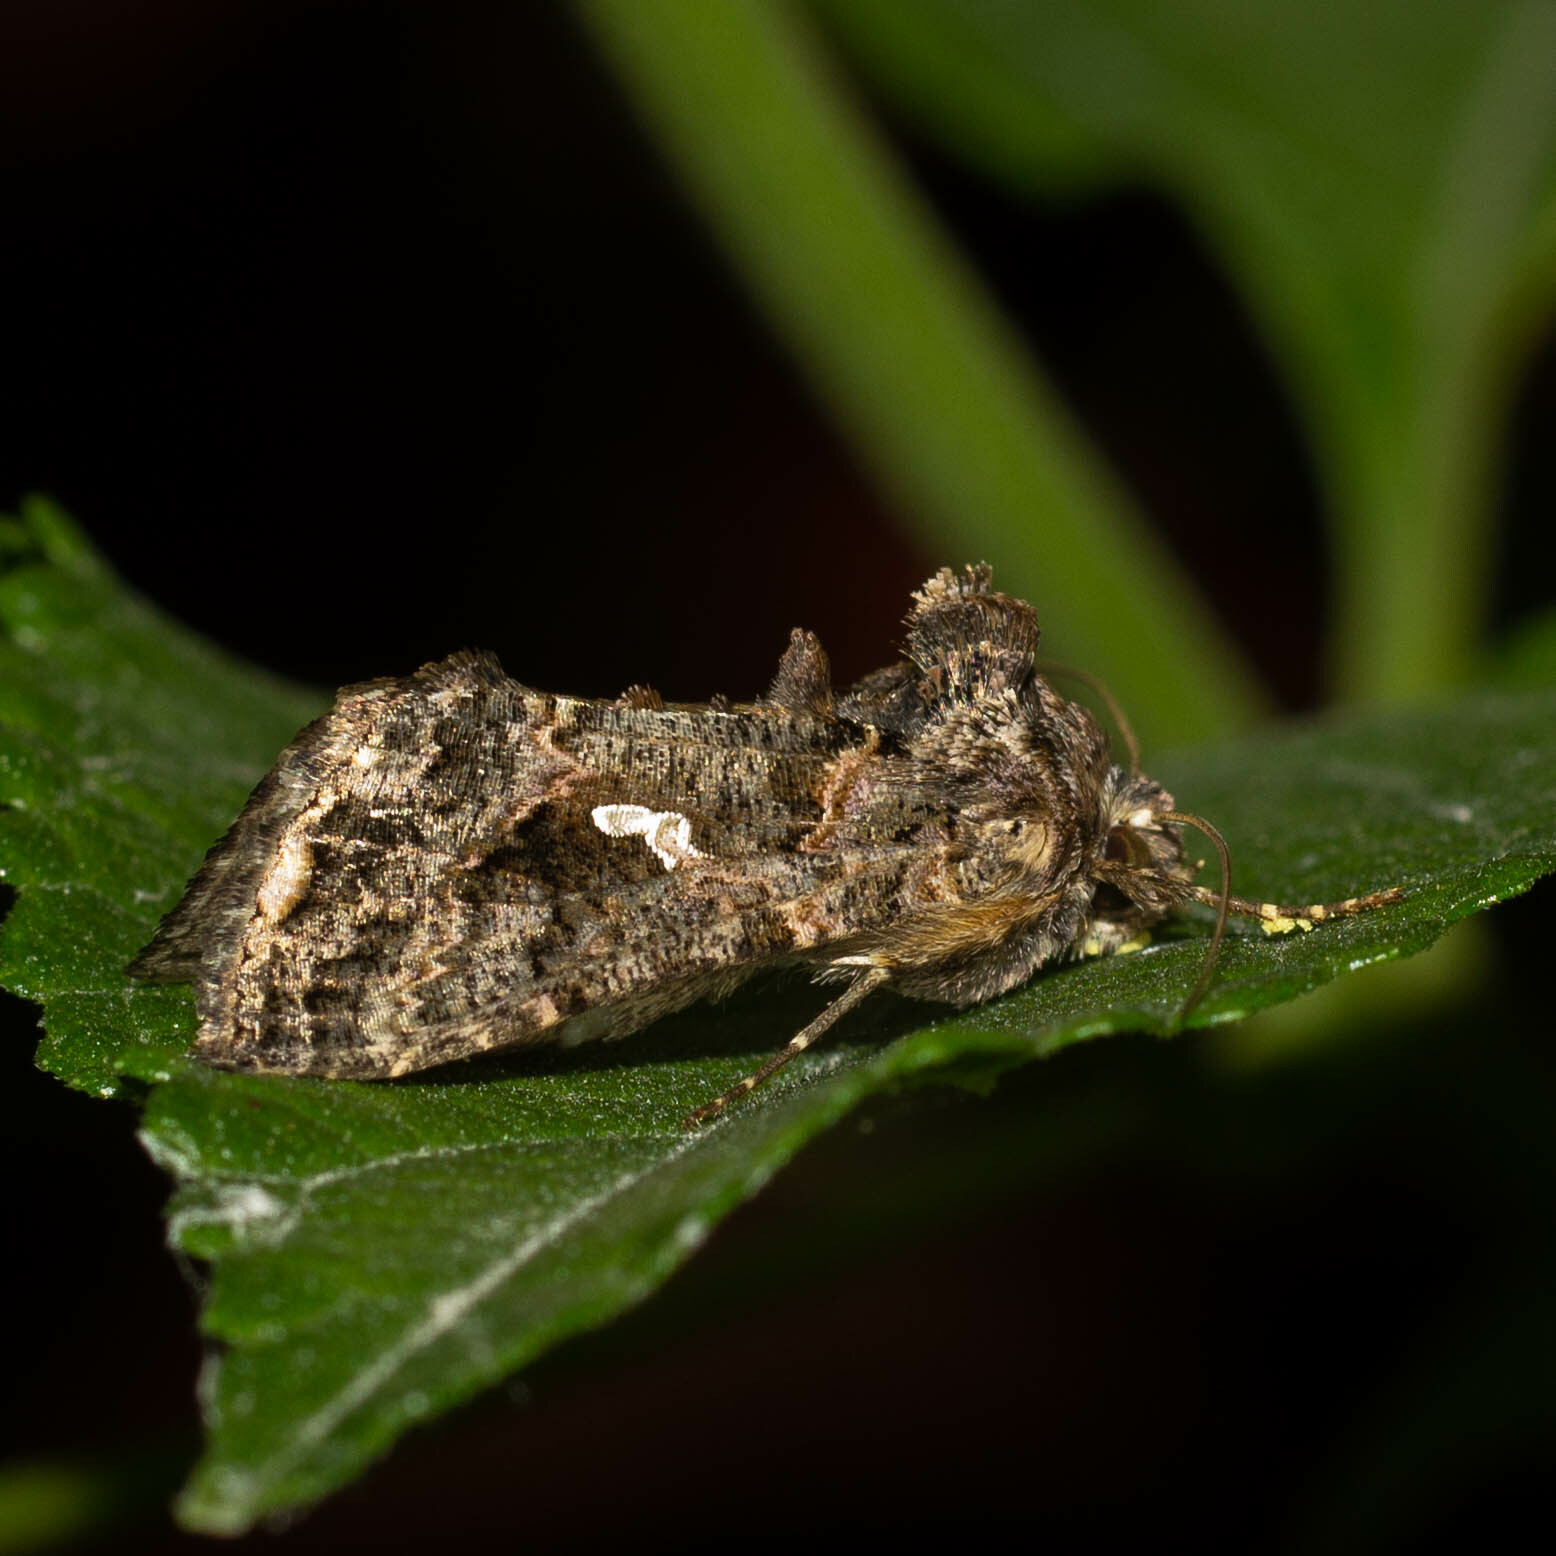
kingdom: Animalia
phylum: Arthropoda
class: Insecta
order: Lepidoptera
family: Noctuidae
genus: Ctenoplusia
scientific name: Ctenoplusia limbirena
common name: Scar bank gem
